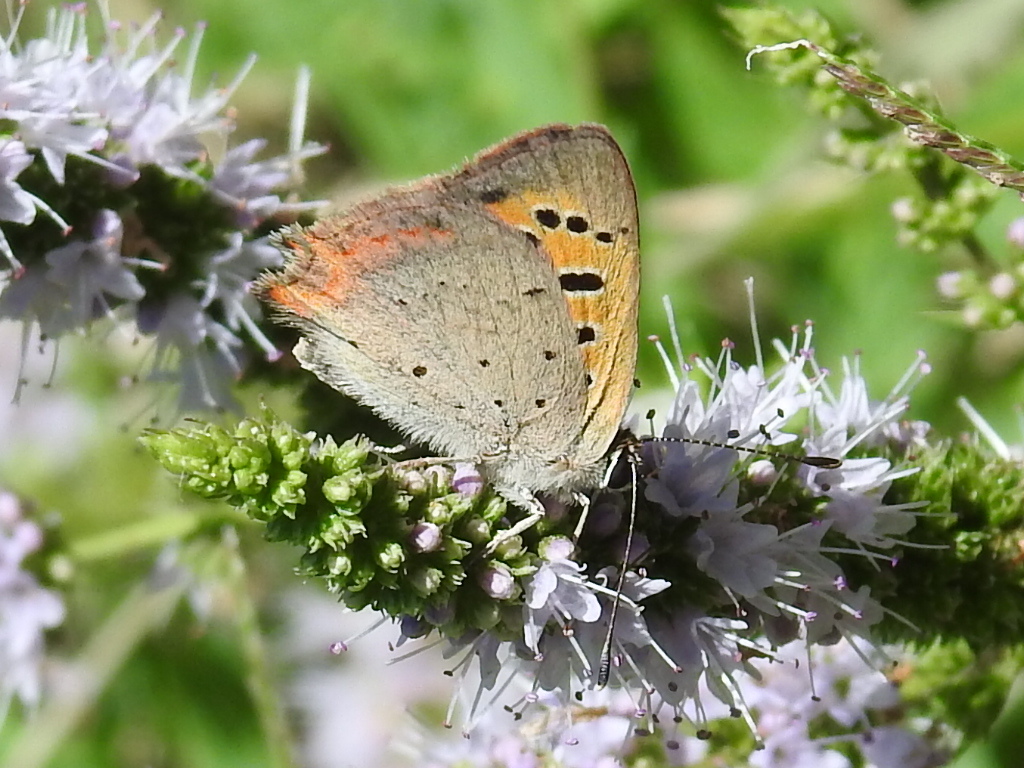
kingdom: Animalia
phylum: Arthropoda
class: Insecta
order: Lepidoptera
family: Lycaenidae
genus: Lycaena
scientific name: Lycaena phlaeas
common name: Small copper
